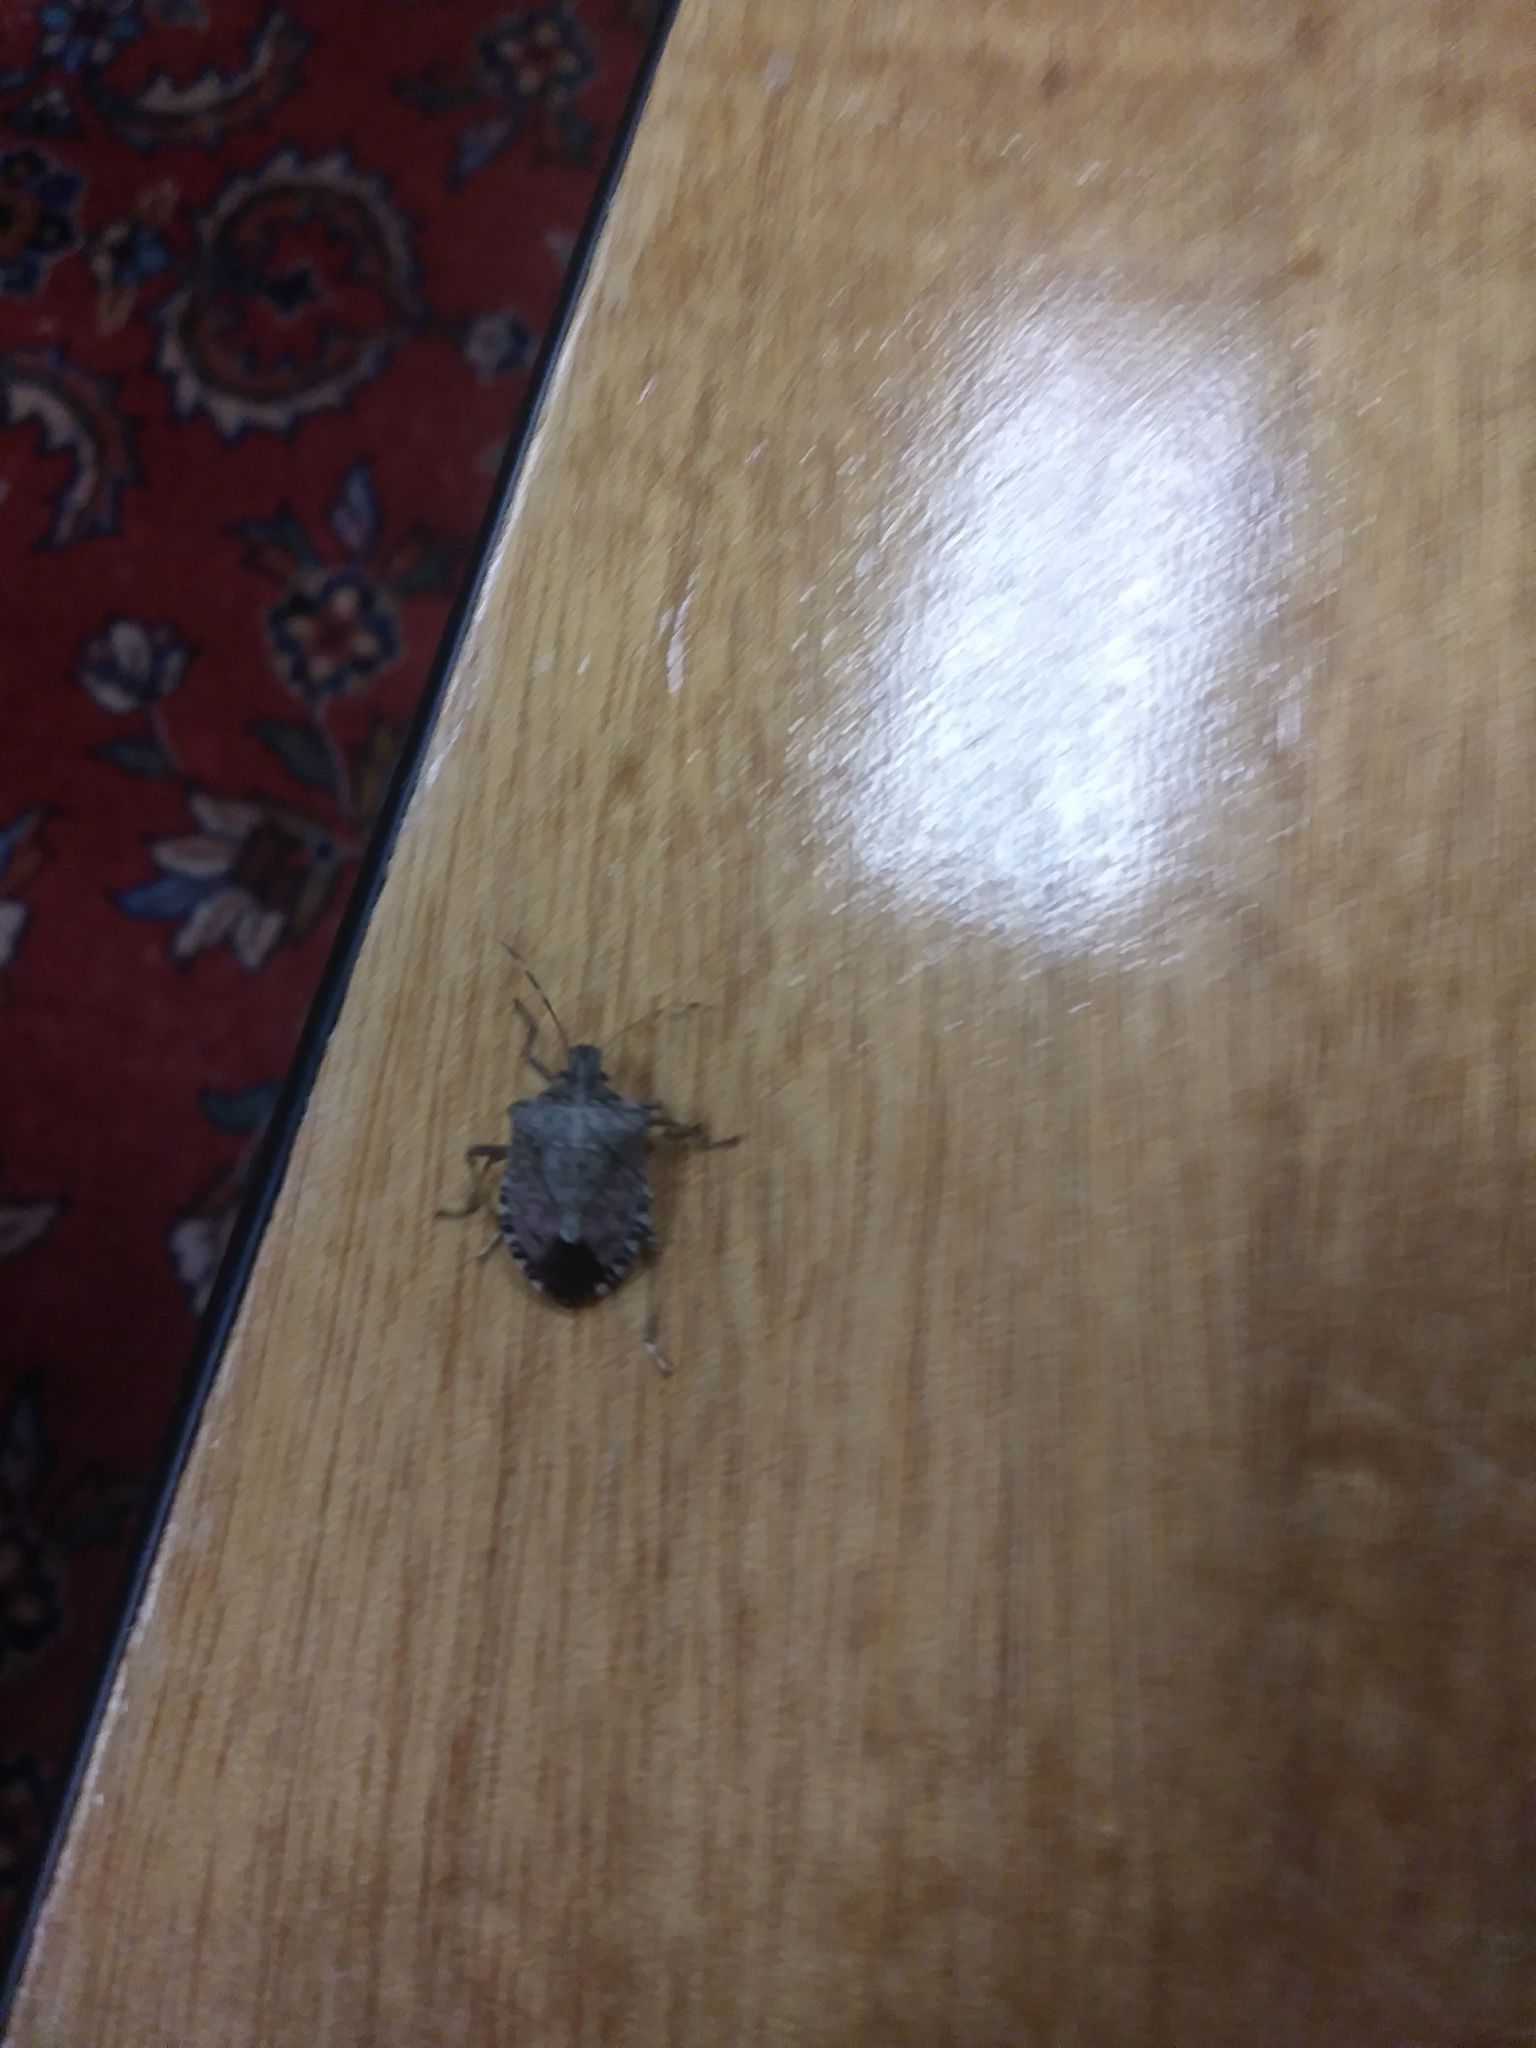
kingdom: Animalia
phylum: Arthropoda
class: Insecta
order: Hemiptera
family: Pentatomidae
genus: Halyomorpha
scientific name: Halyomorpha halys
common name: Brown marmorated stink bug
